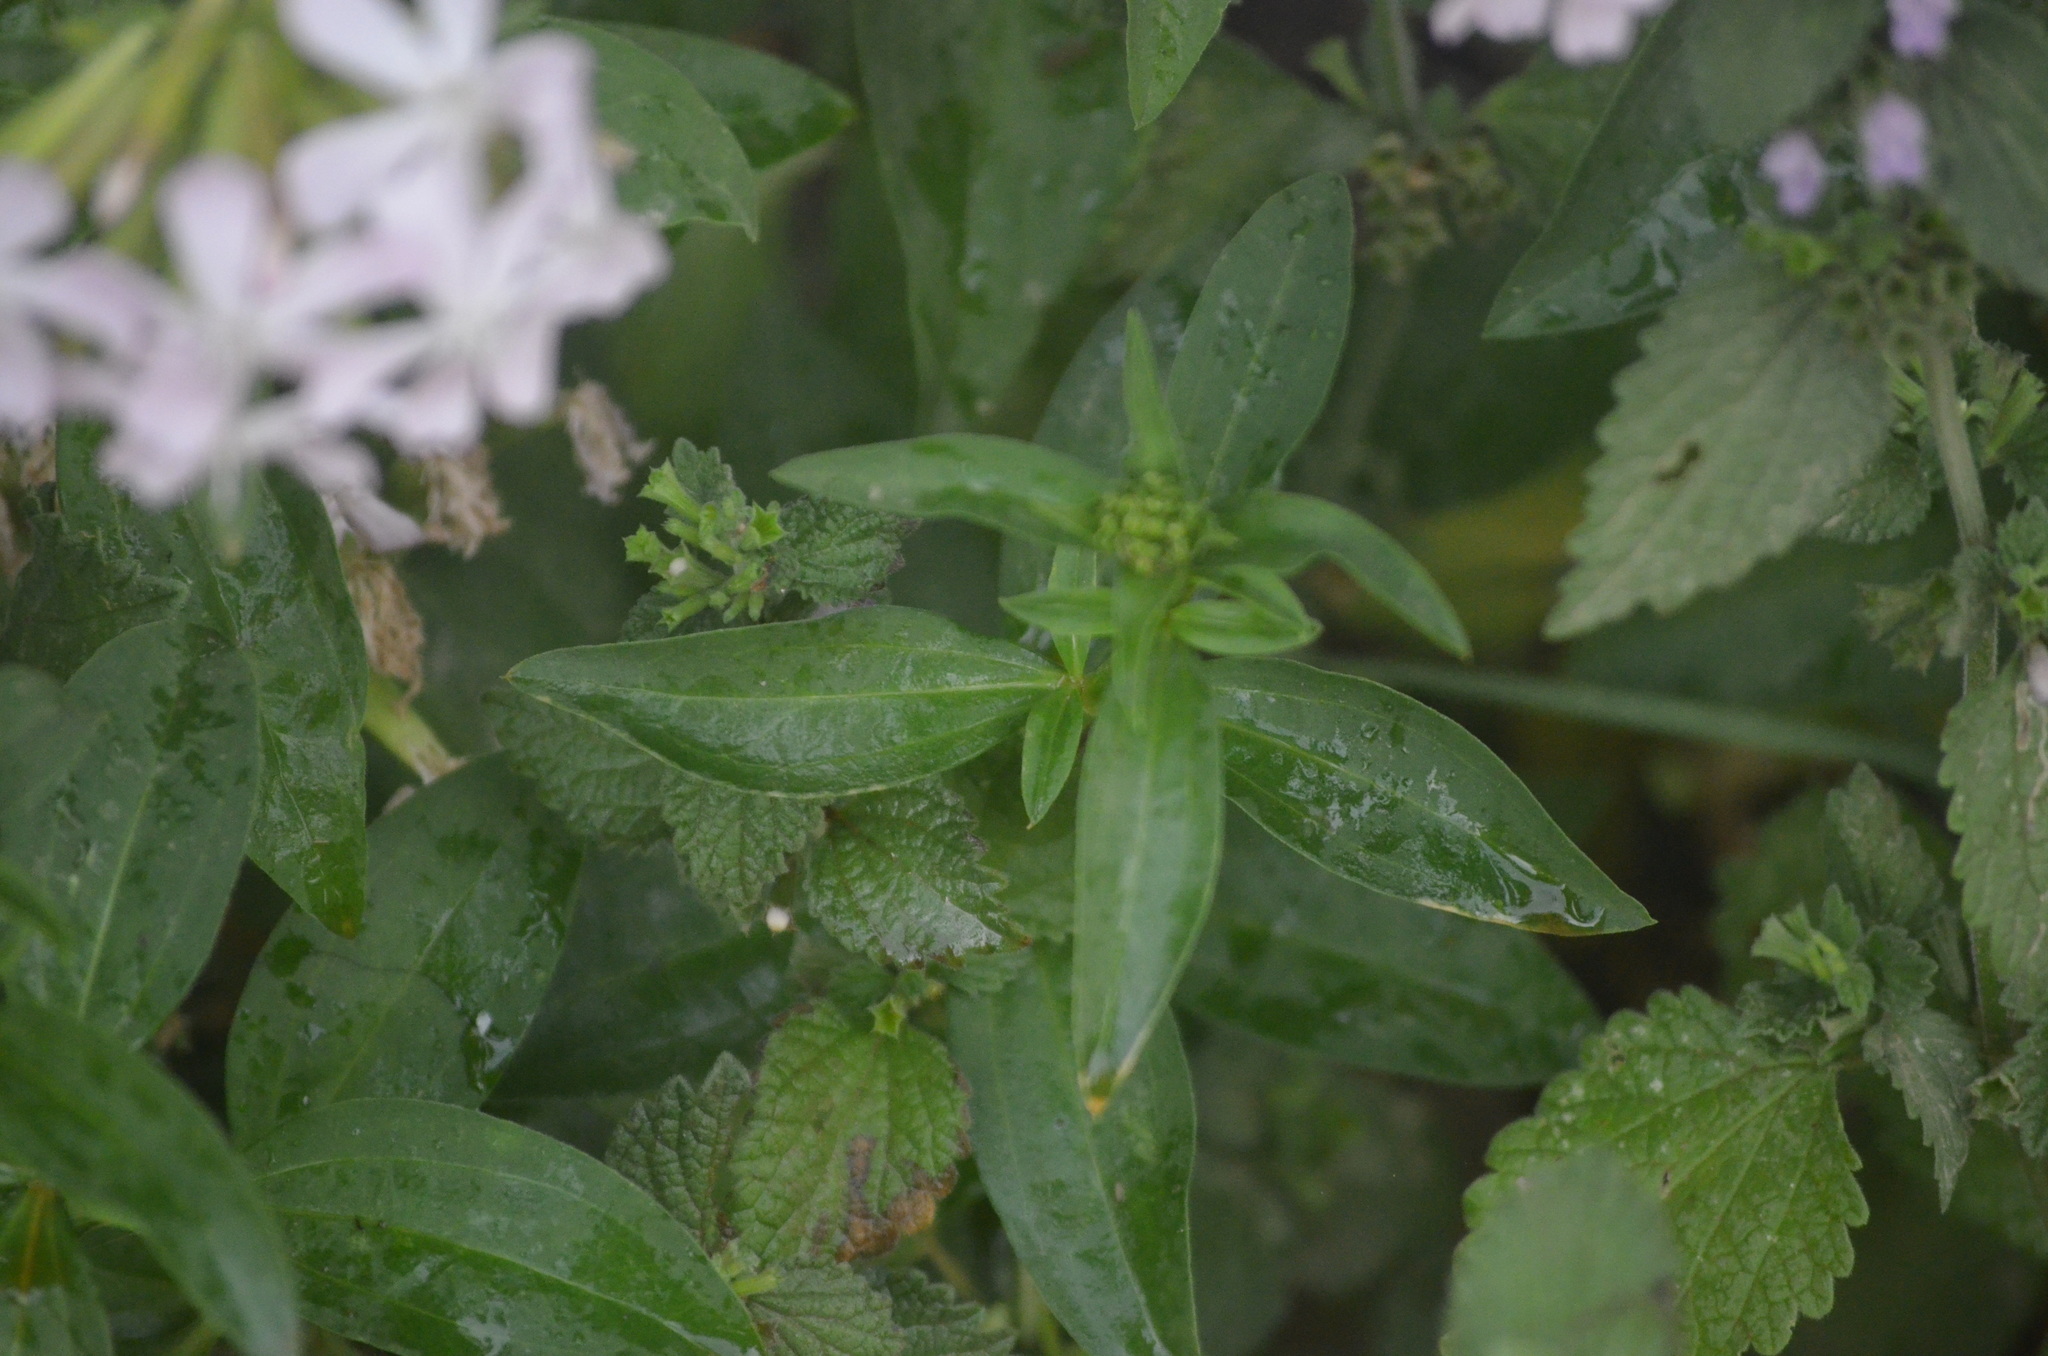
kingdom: Plantae
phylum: Tracheophyta
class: Magnoliopsida
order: Caryophyllales
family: Caryophyllaceae
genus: Saponaria
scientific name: Saponaria officinalis
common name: Soapwort
